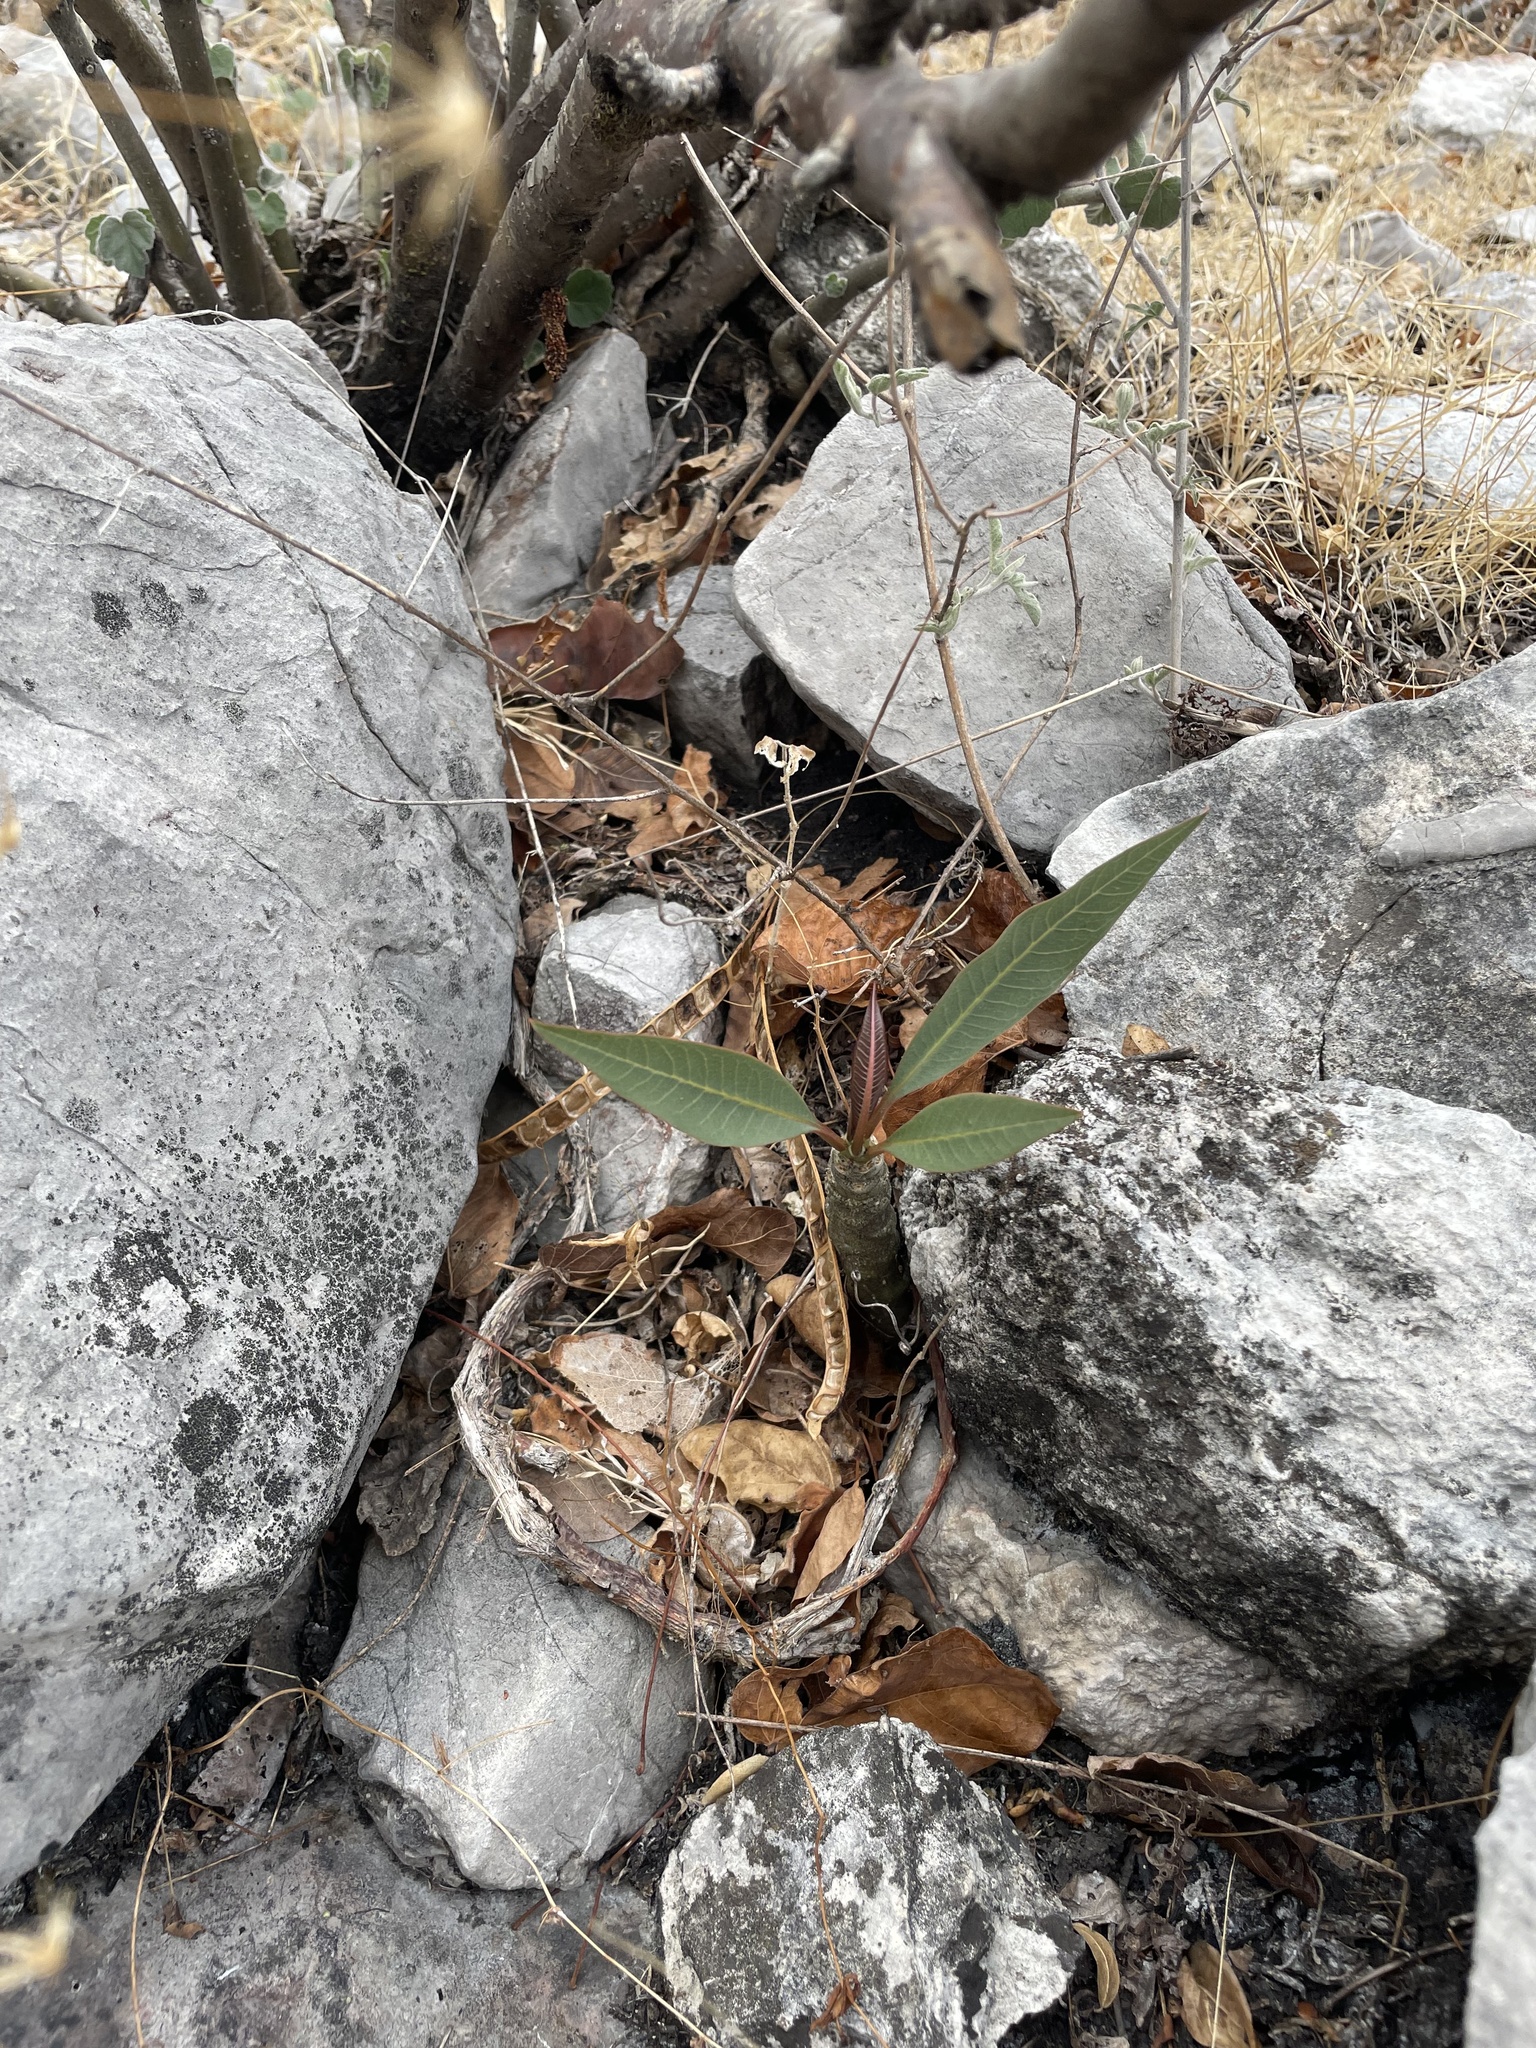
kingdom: Plantae
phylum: Tracheophyta
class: Magnoliopsida
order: Gentianales
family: Apocynaceae
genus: Plumeria
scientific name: Plumeria rubra
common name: Pagoda-tree
